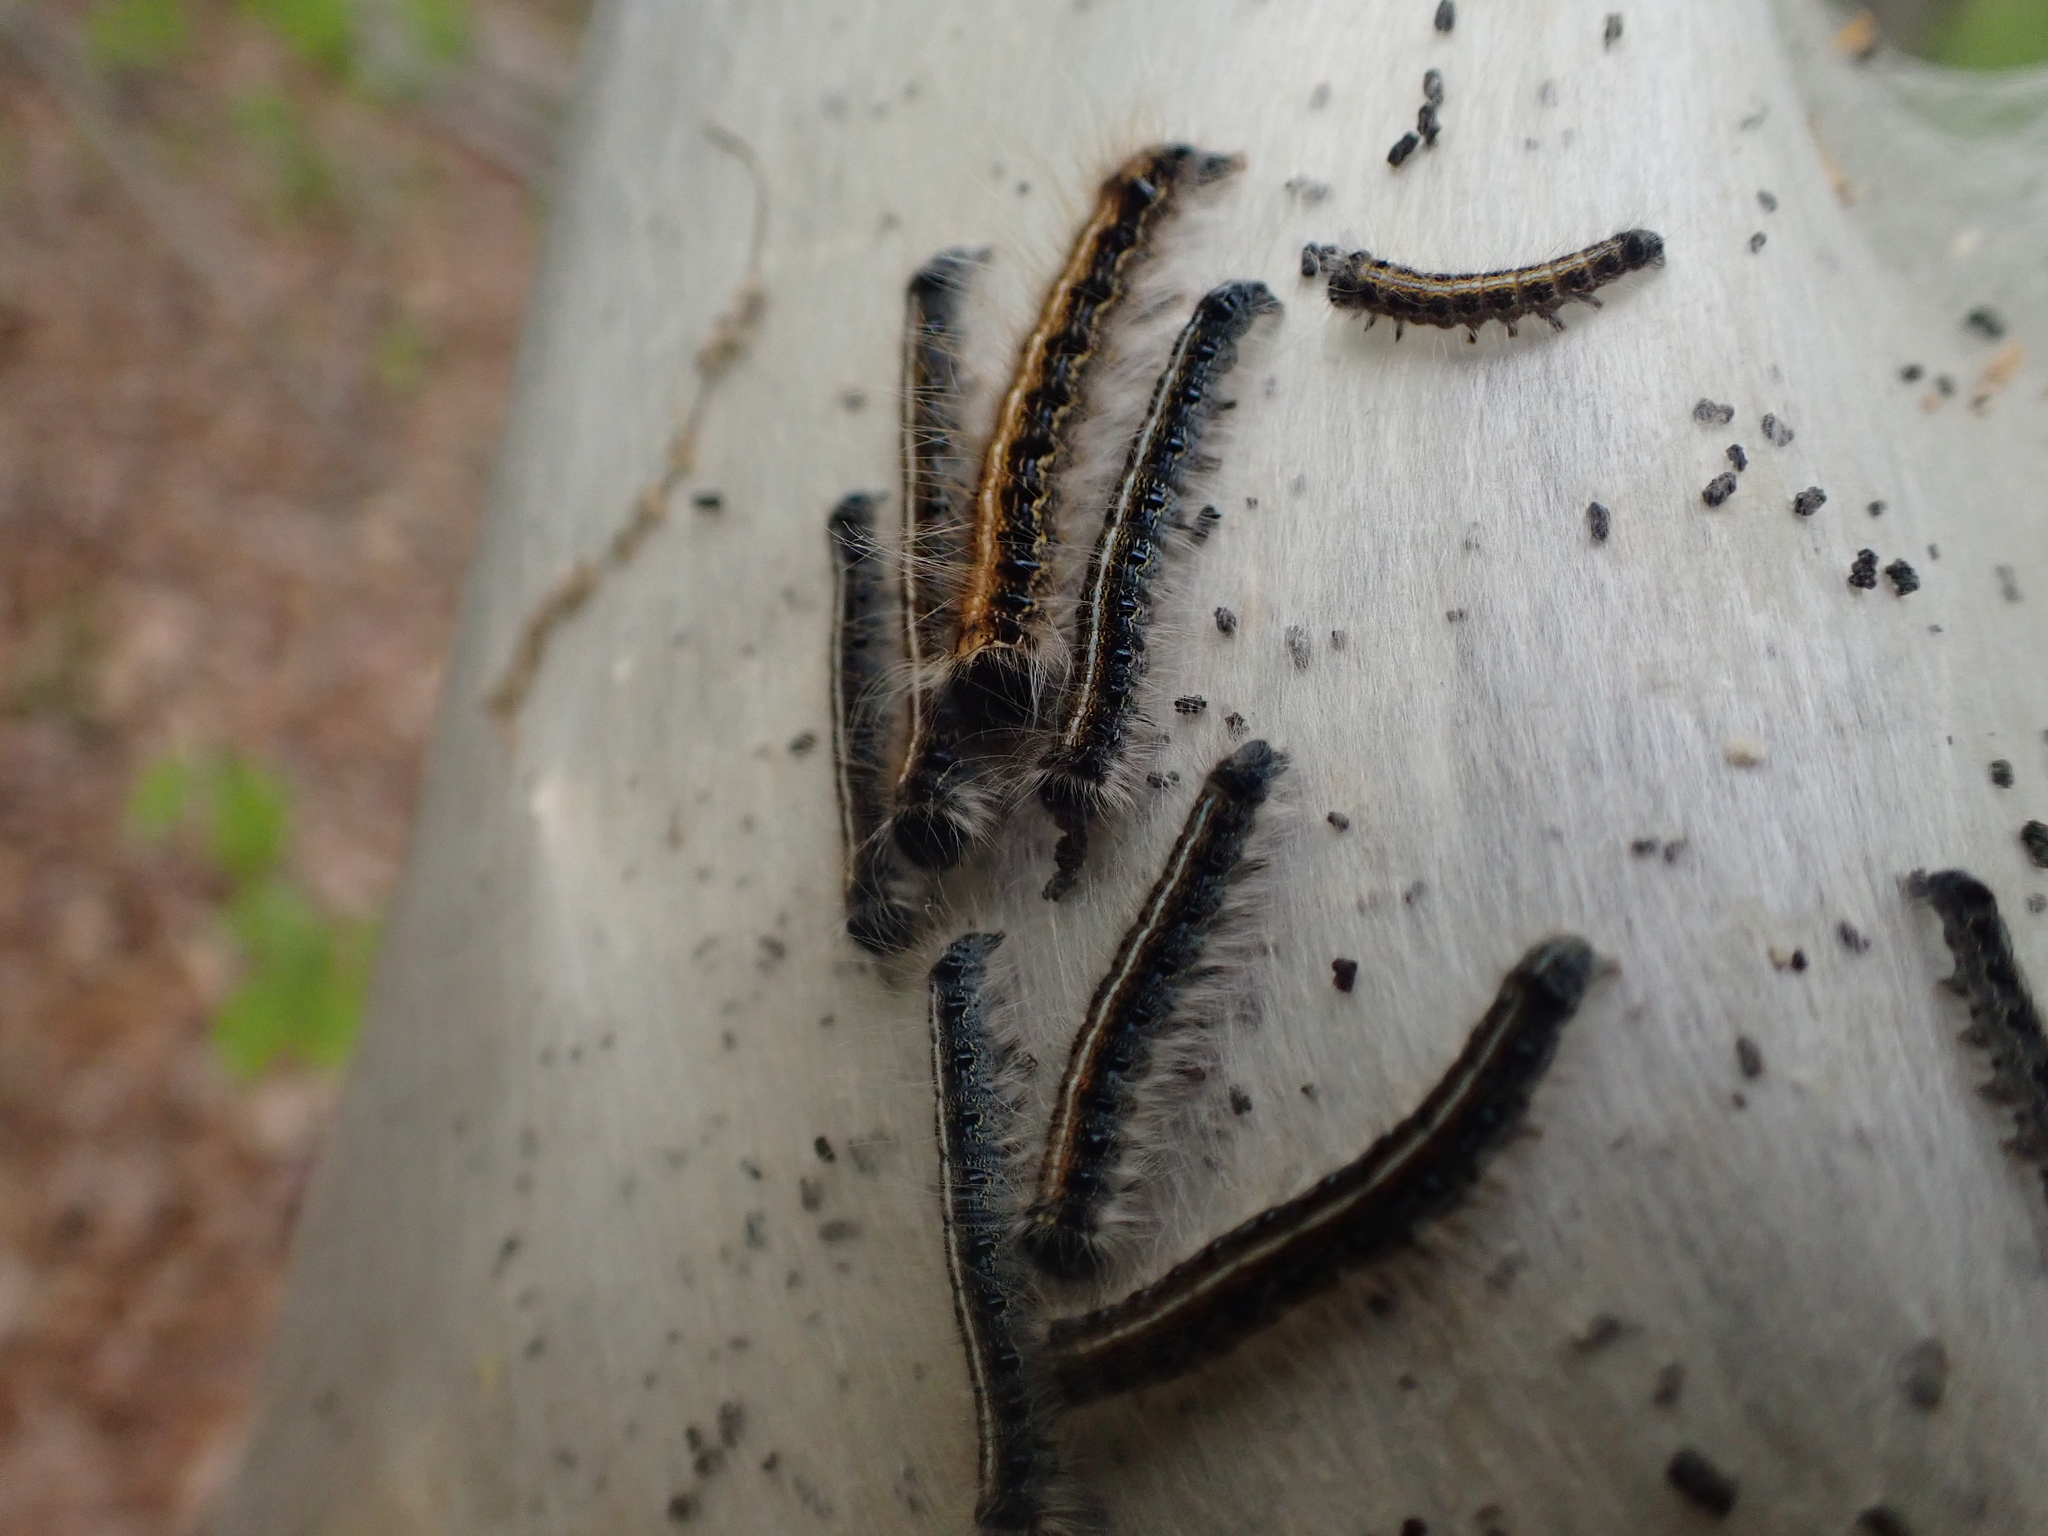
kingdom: Animalia
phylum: Arthropoda
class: Insecta
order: Lepidoptera
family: Lasiocampidae
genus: Malacosoma
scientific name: Malacosoma americana
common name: Eastern tent caterpillar moth
